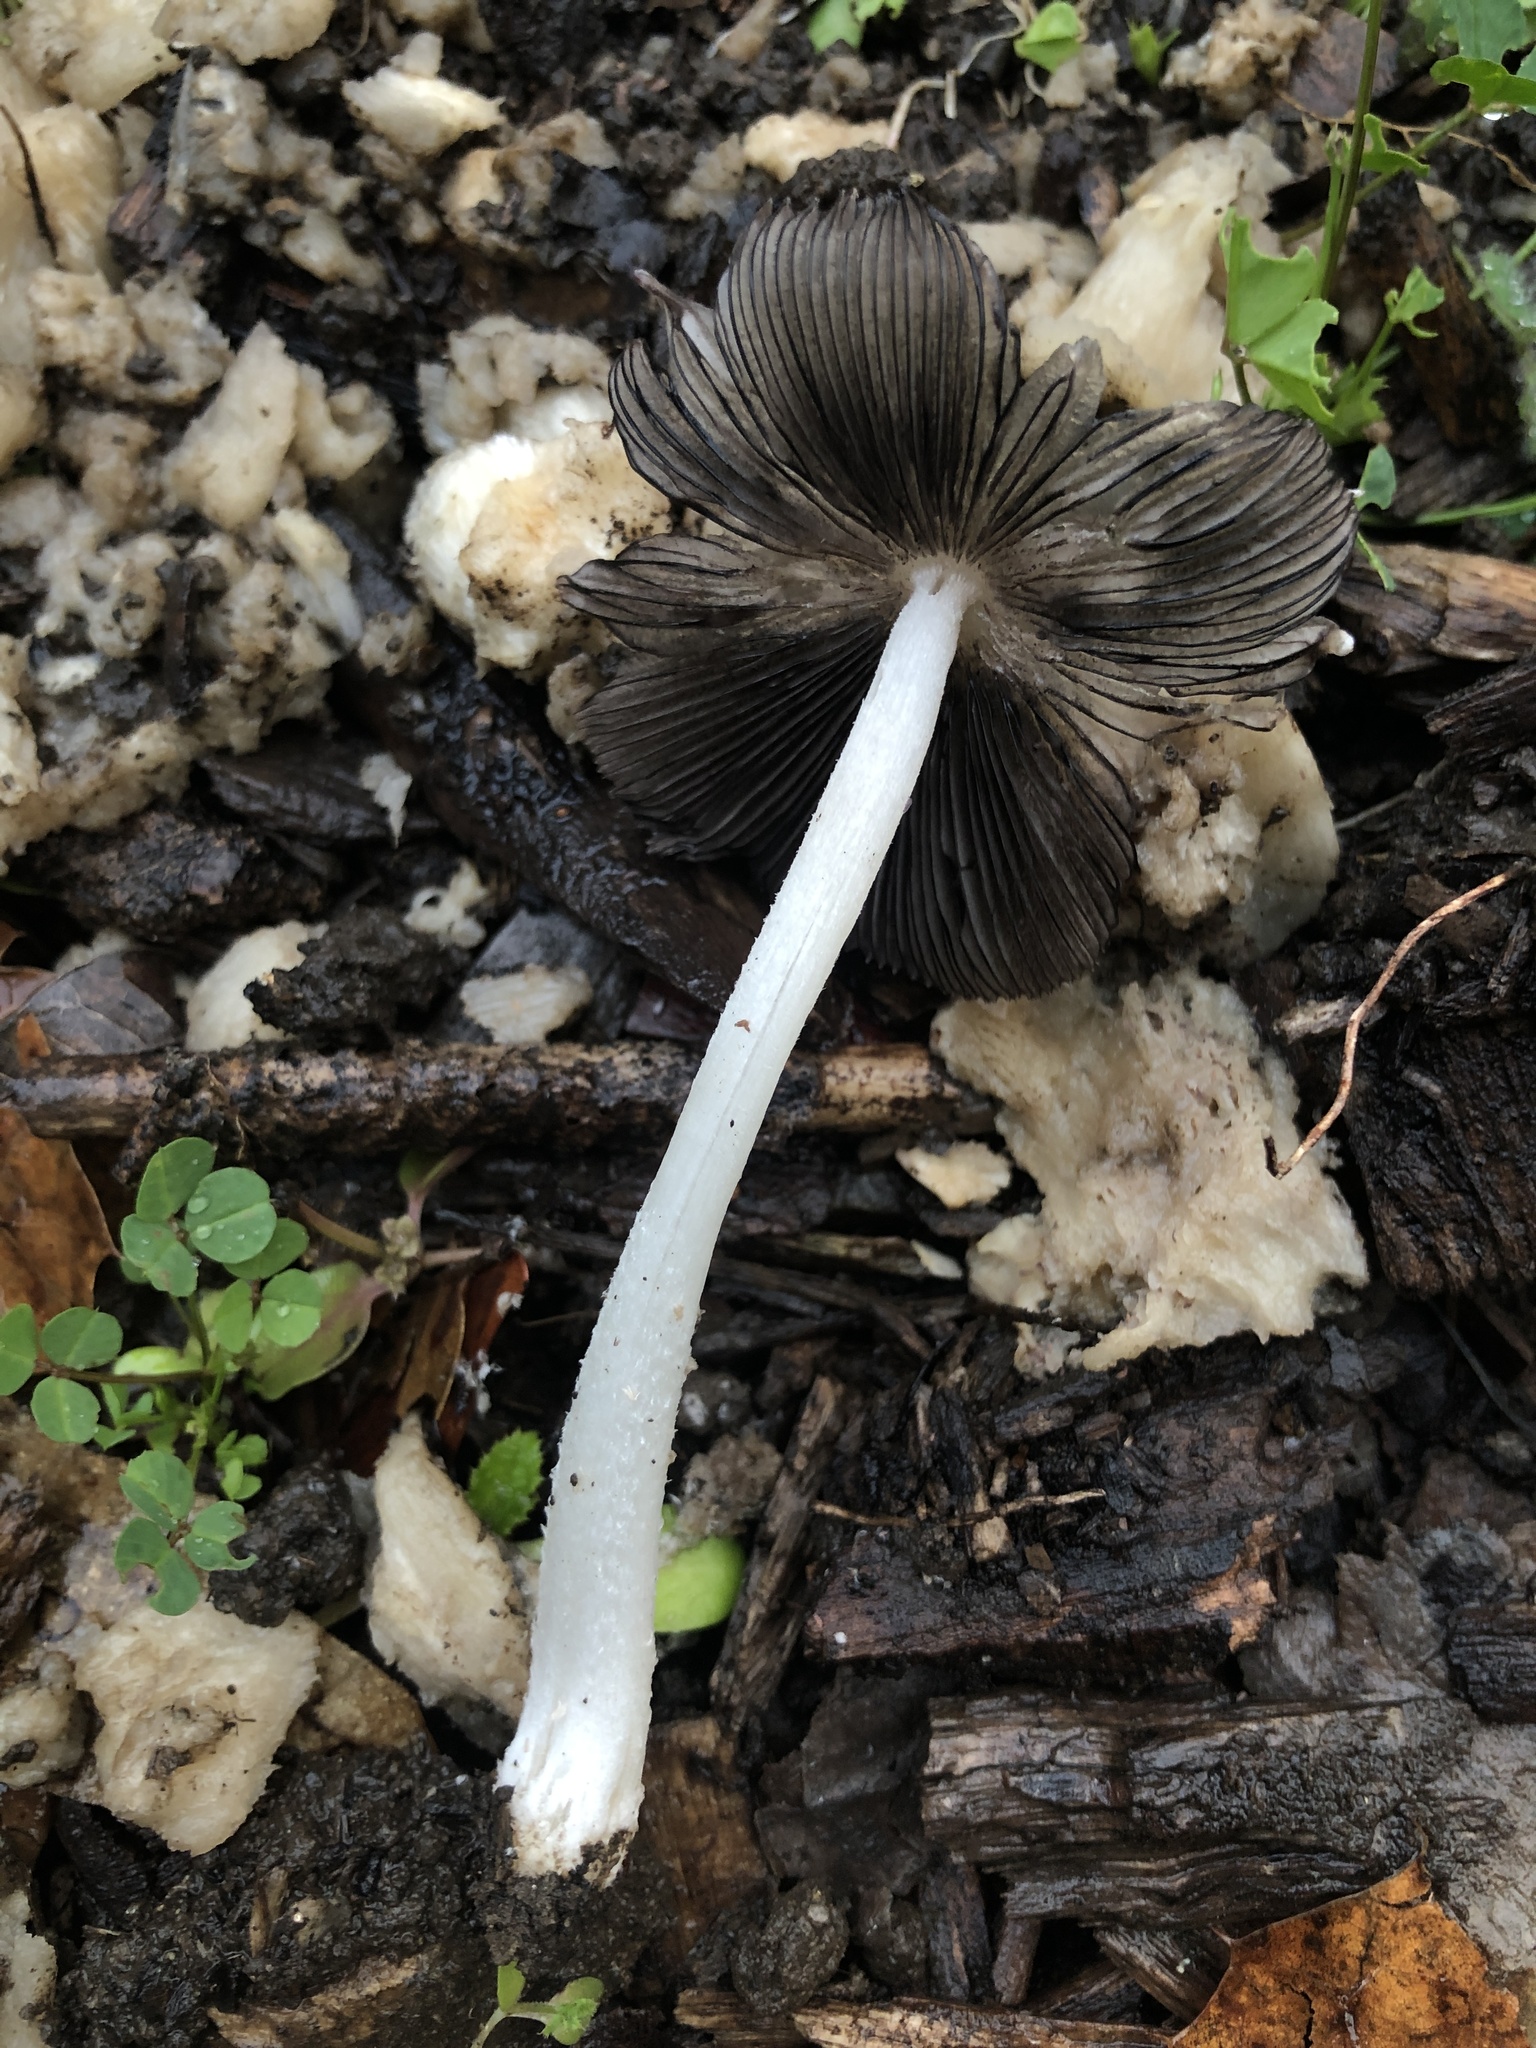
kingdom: Fungi
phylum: Basidiomycota
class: Agaricomycetes
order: Agaricales
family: Psathyrellaceae
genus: Coprinopsis
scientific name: Coprinopsis lagopus
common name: Hare'sfoot inkcap
